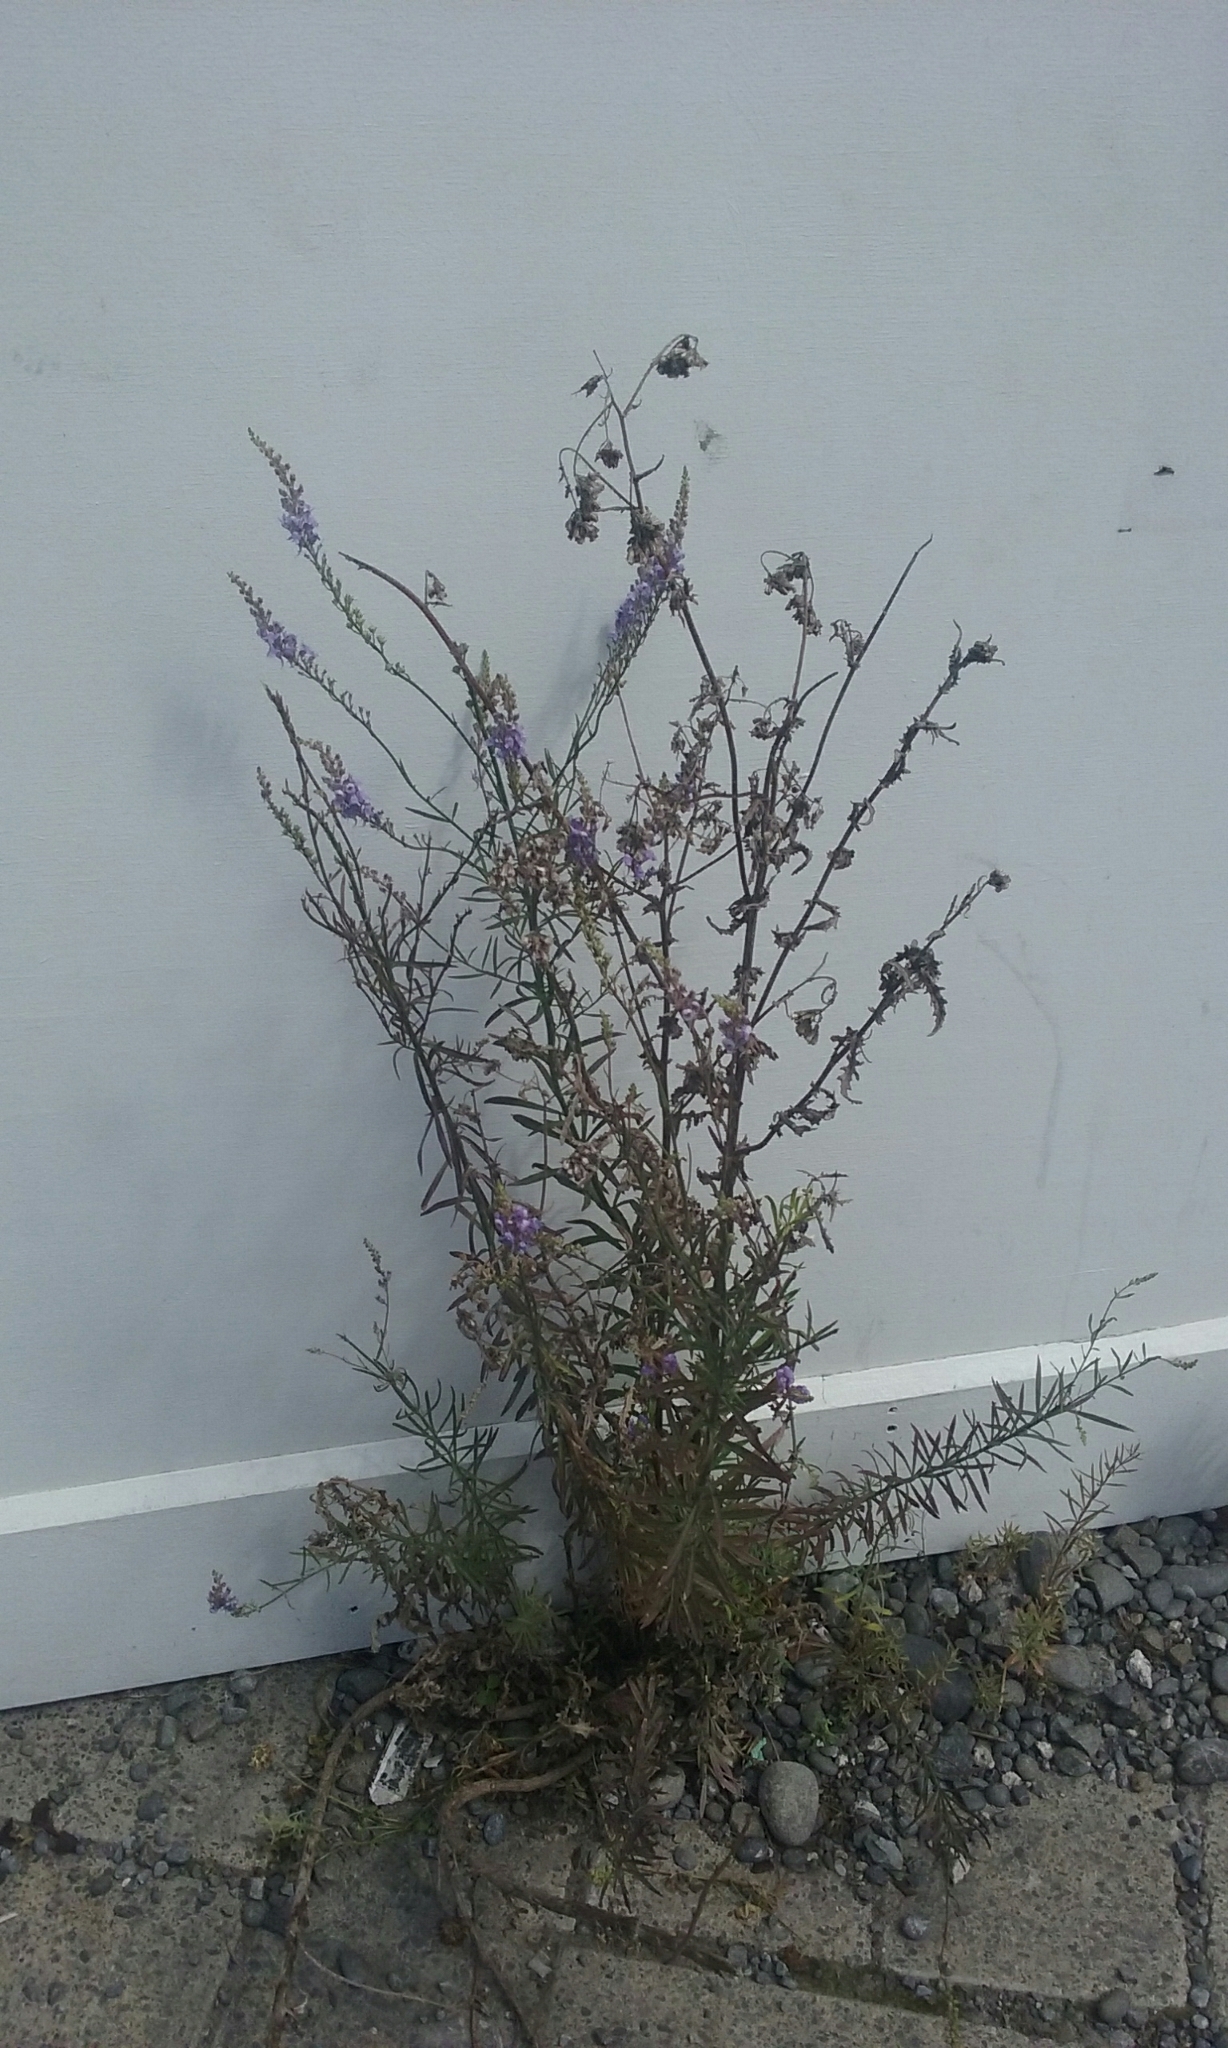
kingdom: Plantae
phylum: Tracheophyta
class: Magnoliopsida
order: Lamiales
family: Plantaginaceae
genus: Linaria
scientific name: Linaria purpurea
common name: Purple toadflax
